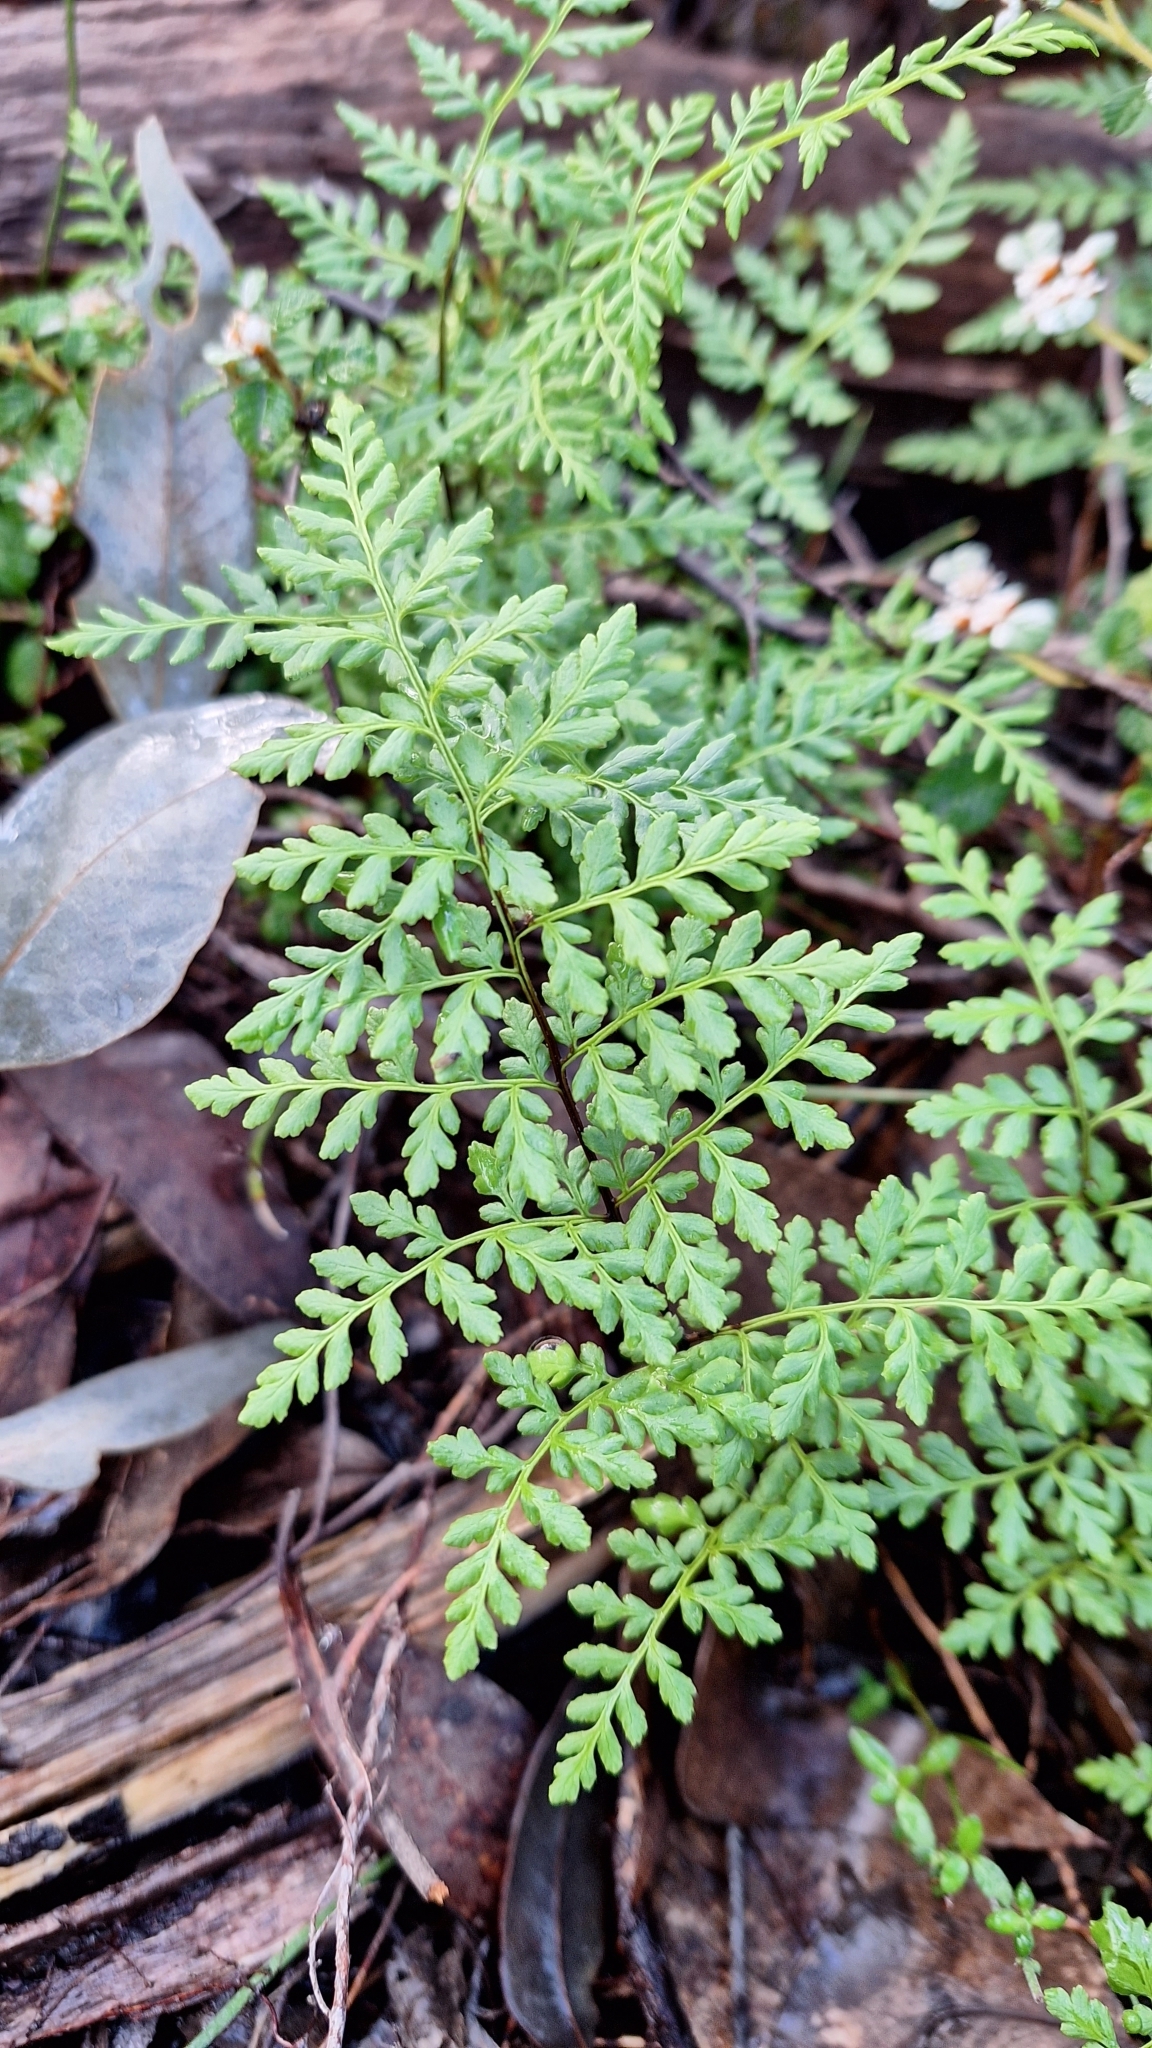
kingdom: Plantae
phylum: Tracheophyta
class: Polypodiopsida
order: Polypodiales
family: Pteridaceae
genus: Cheilanthes
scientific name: Cheilanthes austrotenuifolia
